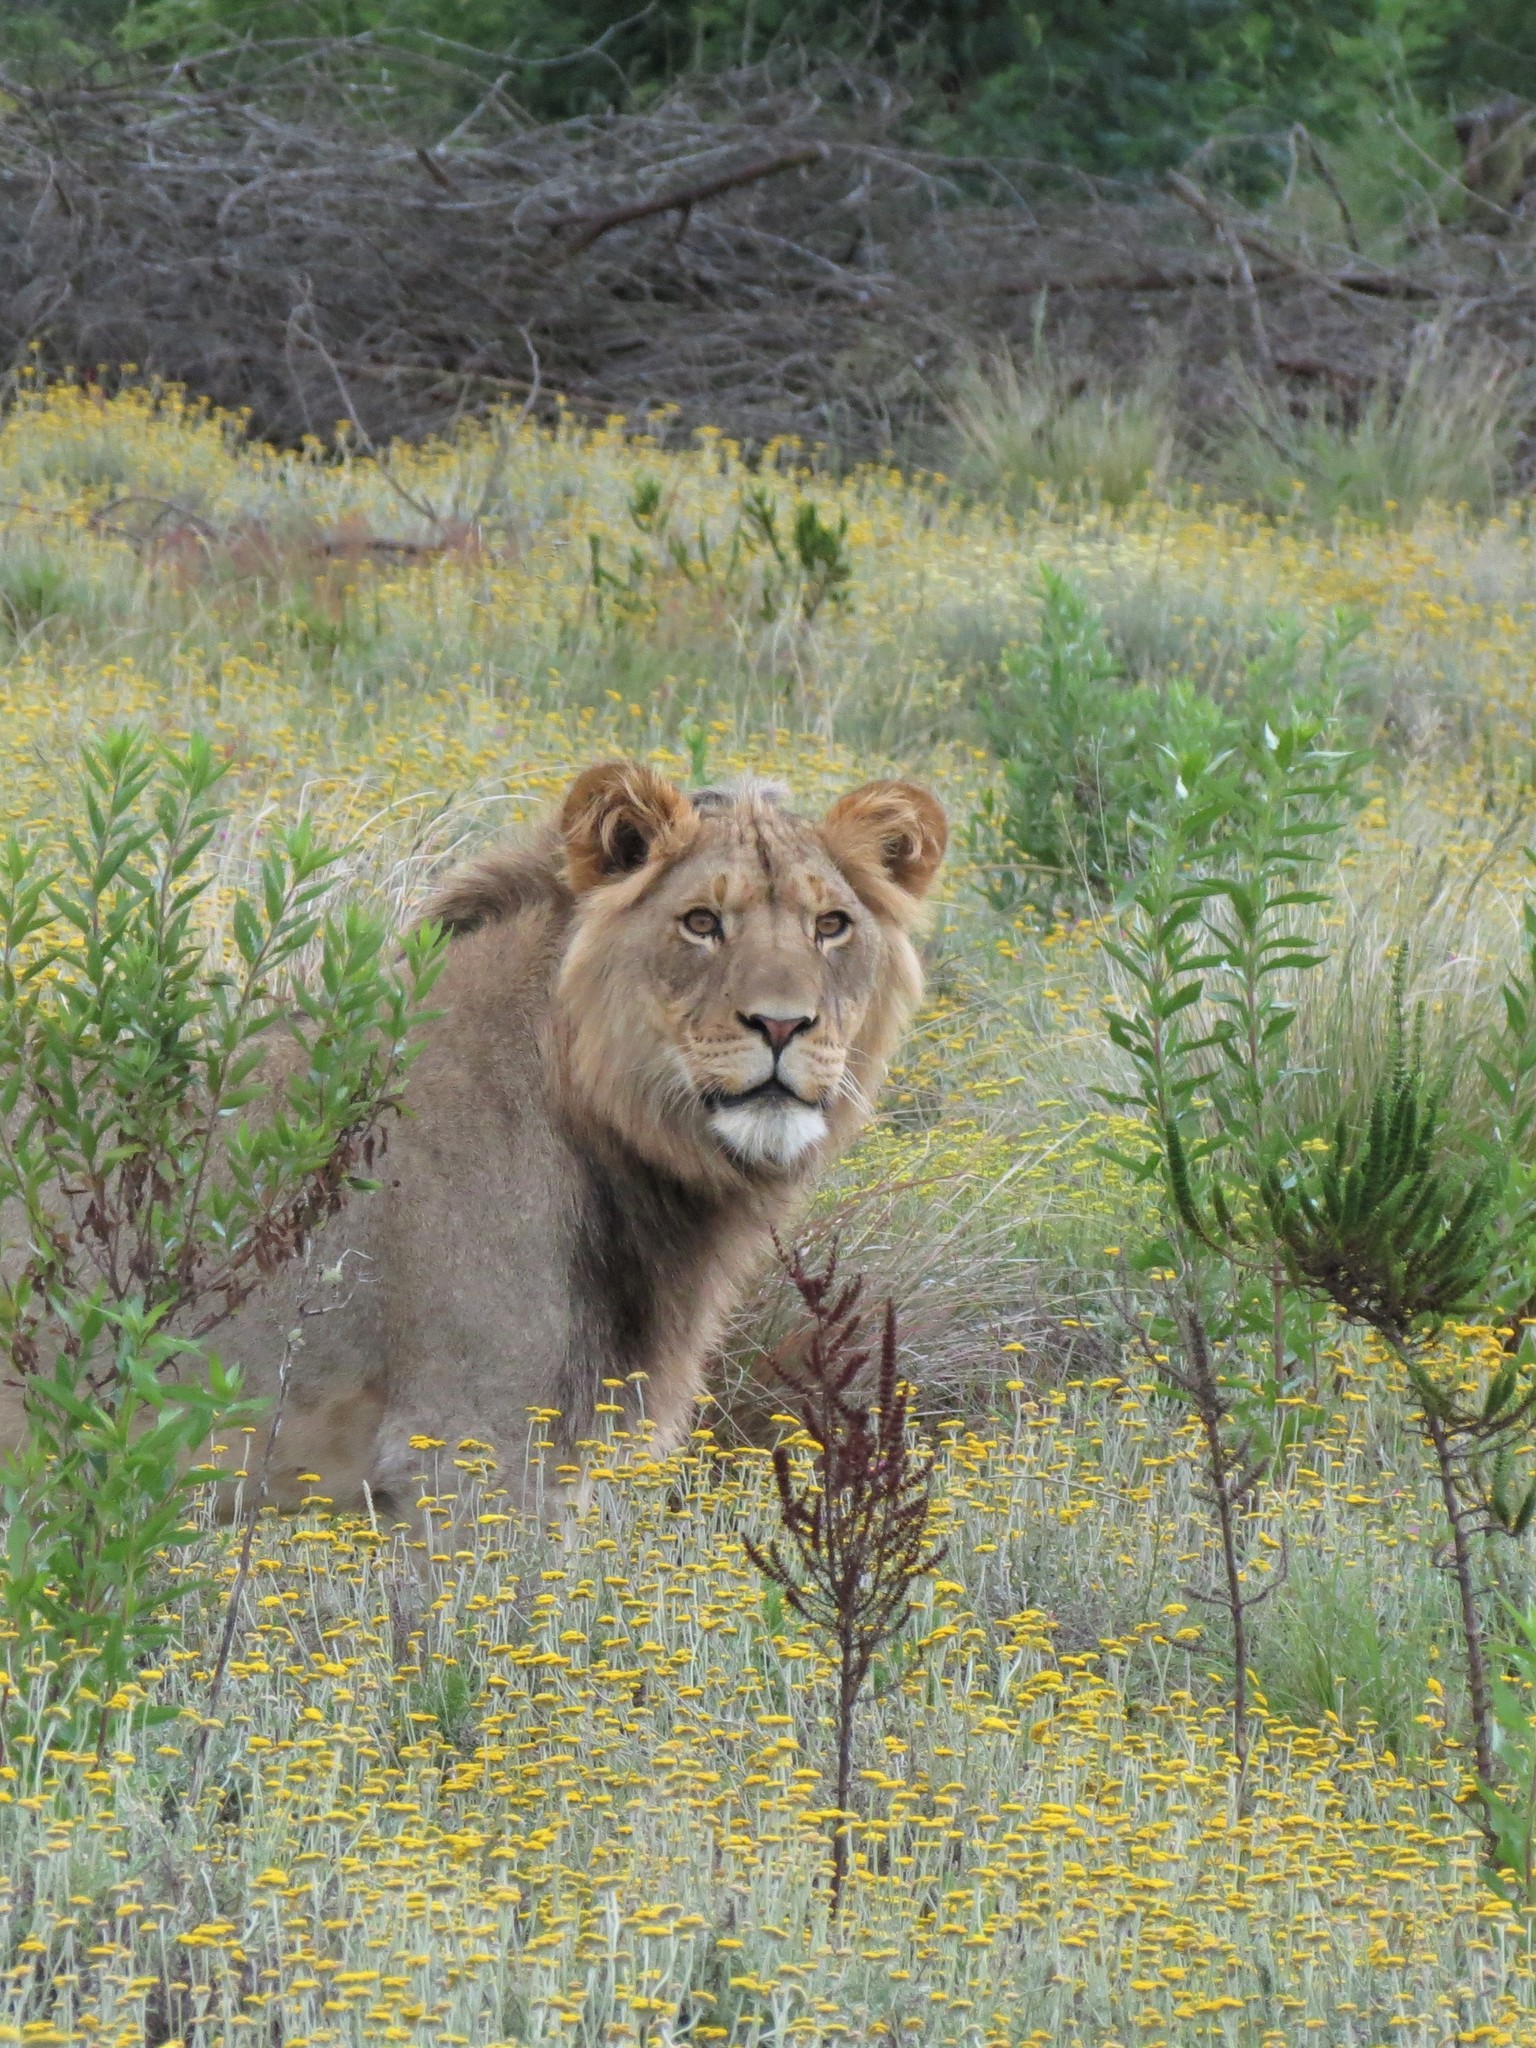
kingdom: Animalia
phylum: Chordata
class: Mammalia
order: Carnivora
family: Felidae
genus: Panthera
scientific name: Panthera leo
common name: Lion
